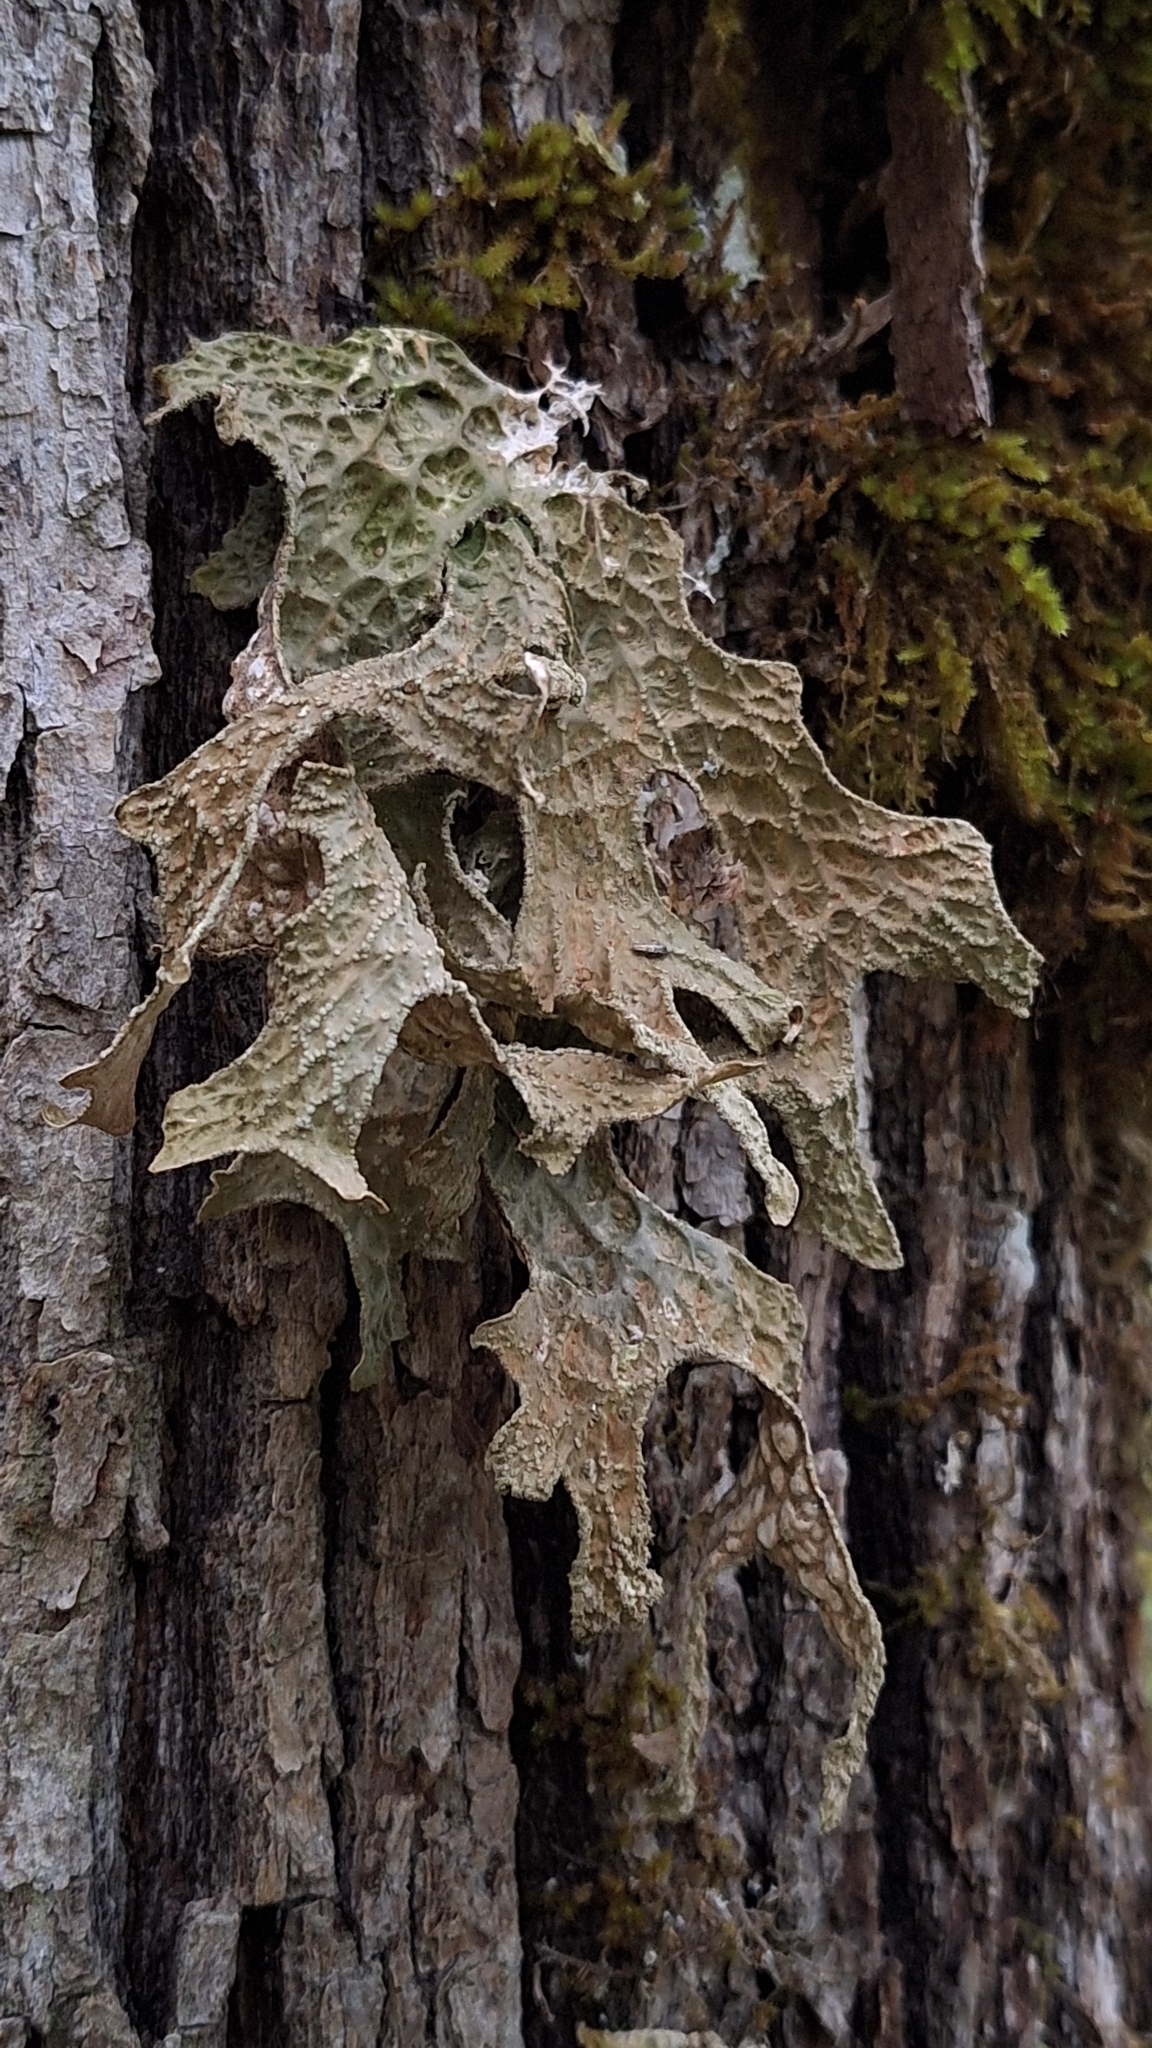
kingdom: Fungi
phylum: Ascomycota
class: Lecanoromycetes
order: Peltigerales
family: Lobariaceae
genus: Lobaria
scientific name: Lobaria pulmonaria
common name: Lungwort
